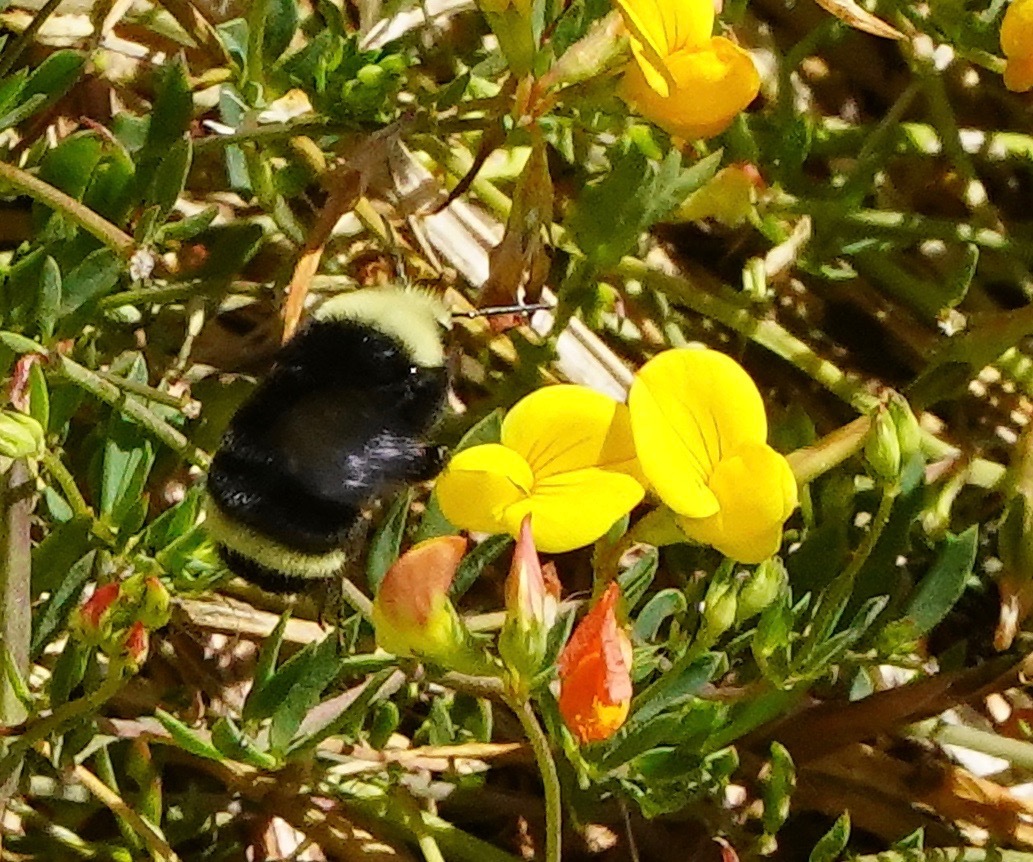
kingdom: Animalia
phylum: Arthropoda
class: Insecta
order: Hymenoptera
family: Apidae
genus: Bombus
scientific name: Bombus vosnesenskii
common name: Vosnesensky bumble bee
